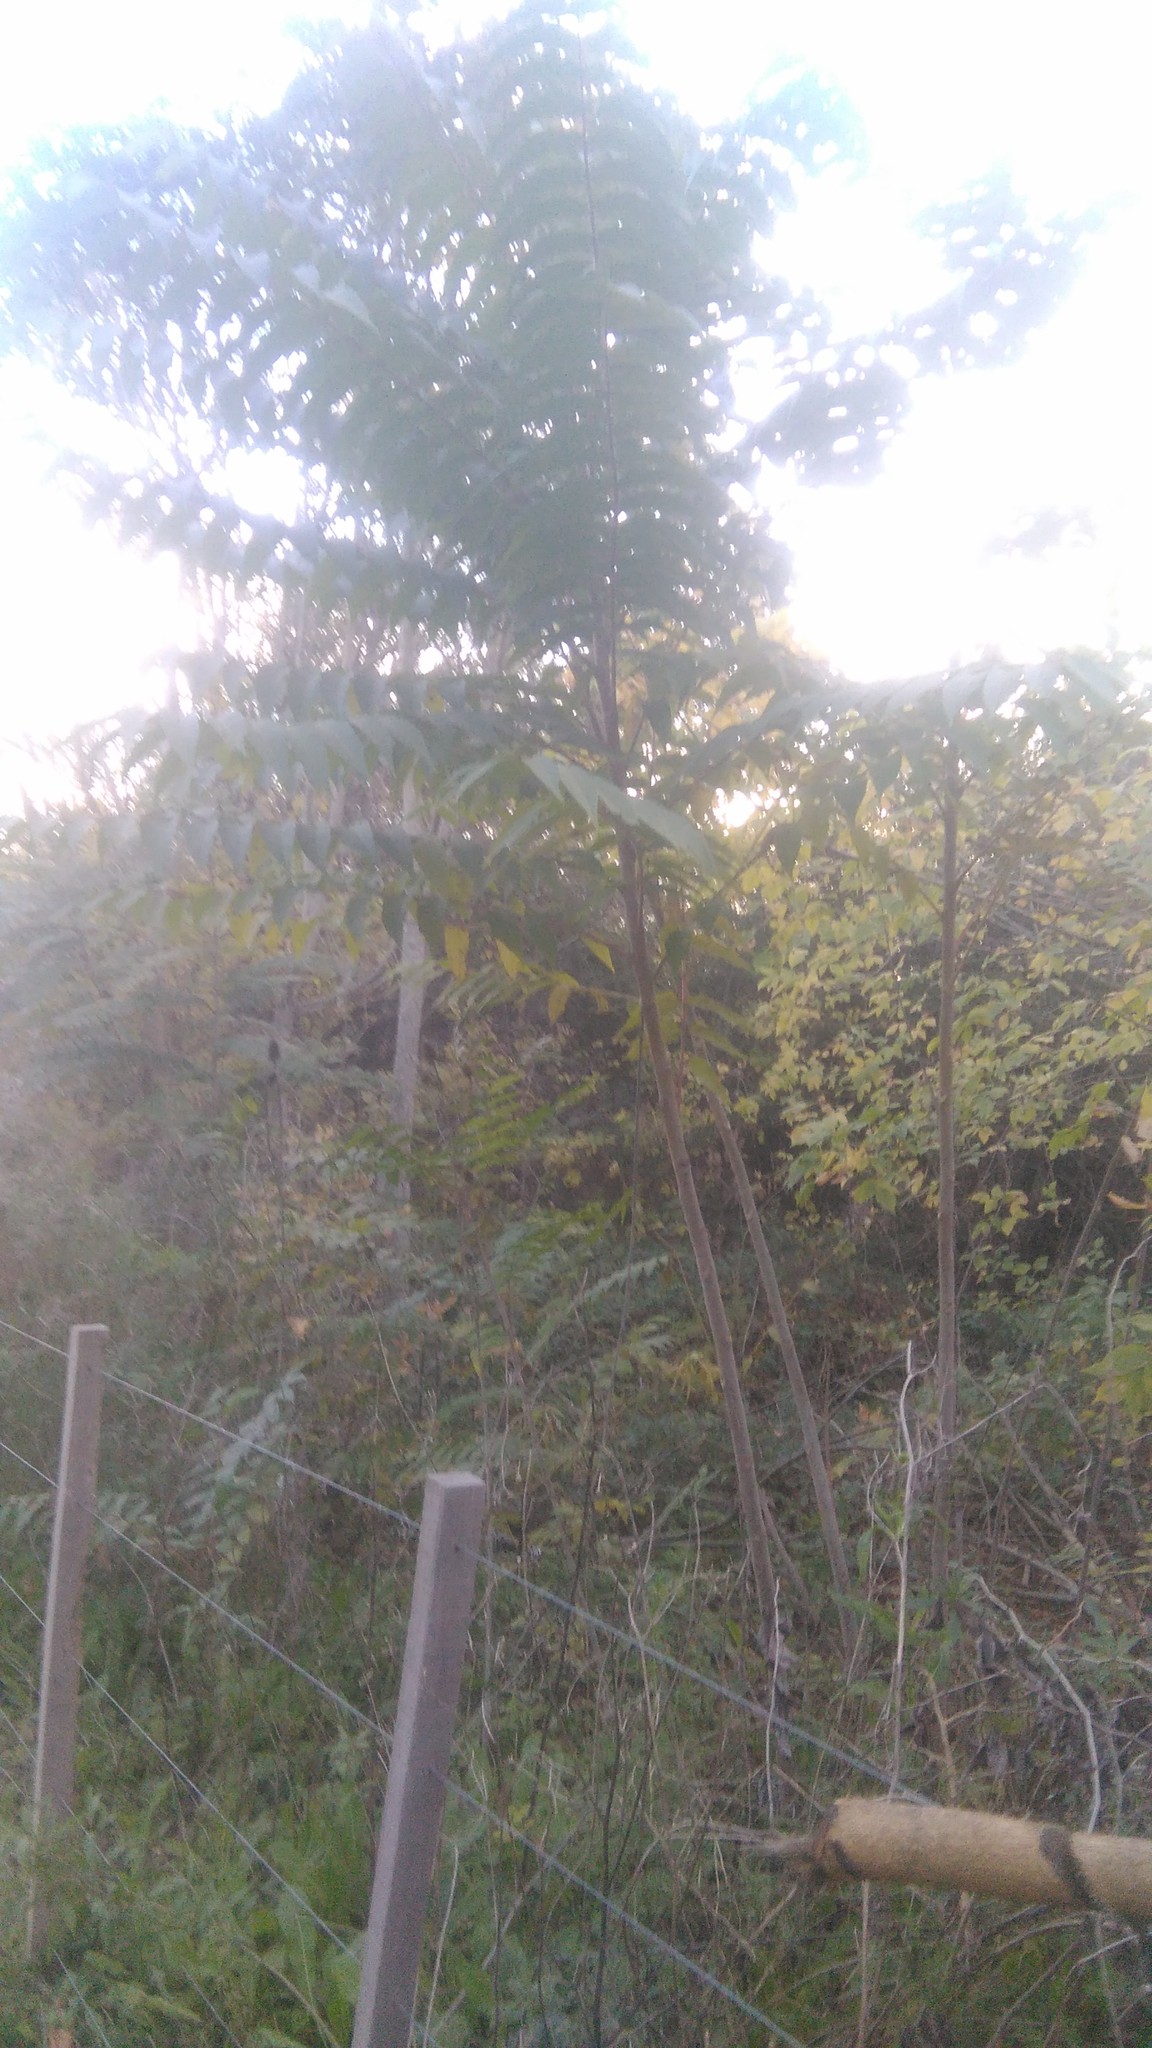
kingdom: Plantae
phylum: Tracheophyta
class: Magnoliopsida
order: Sapindales
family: Simaroubaceae
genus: Ailanthus
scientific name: Ailanthus altissima
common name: Tree-of-heaven
